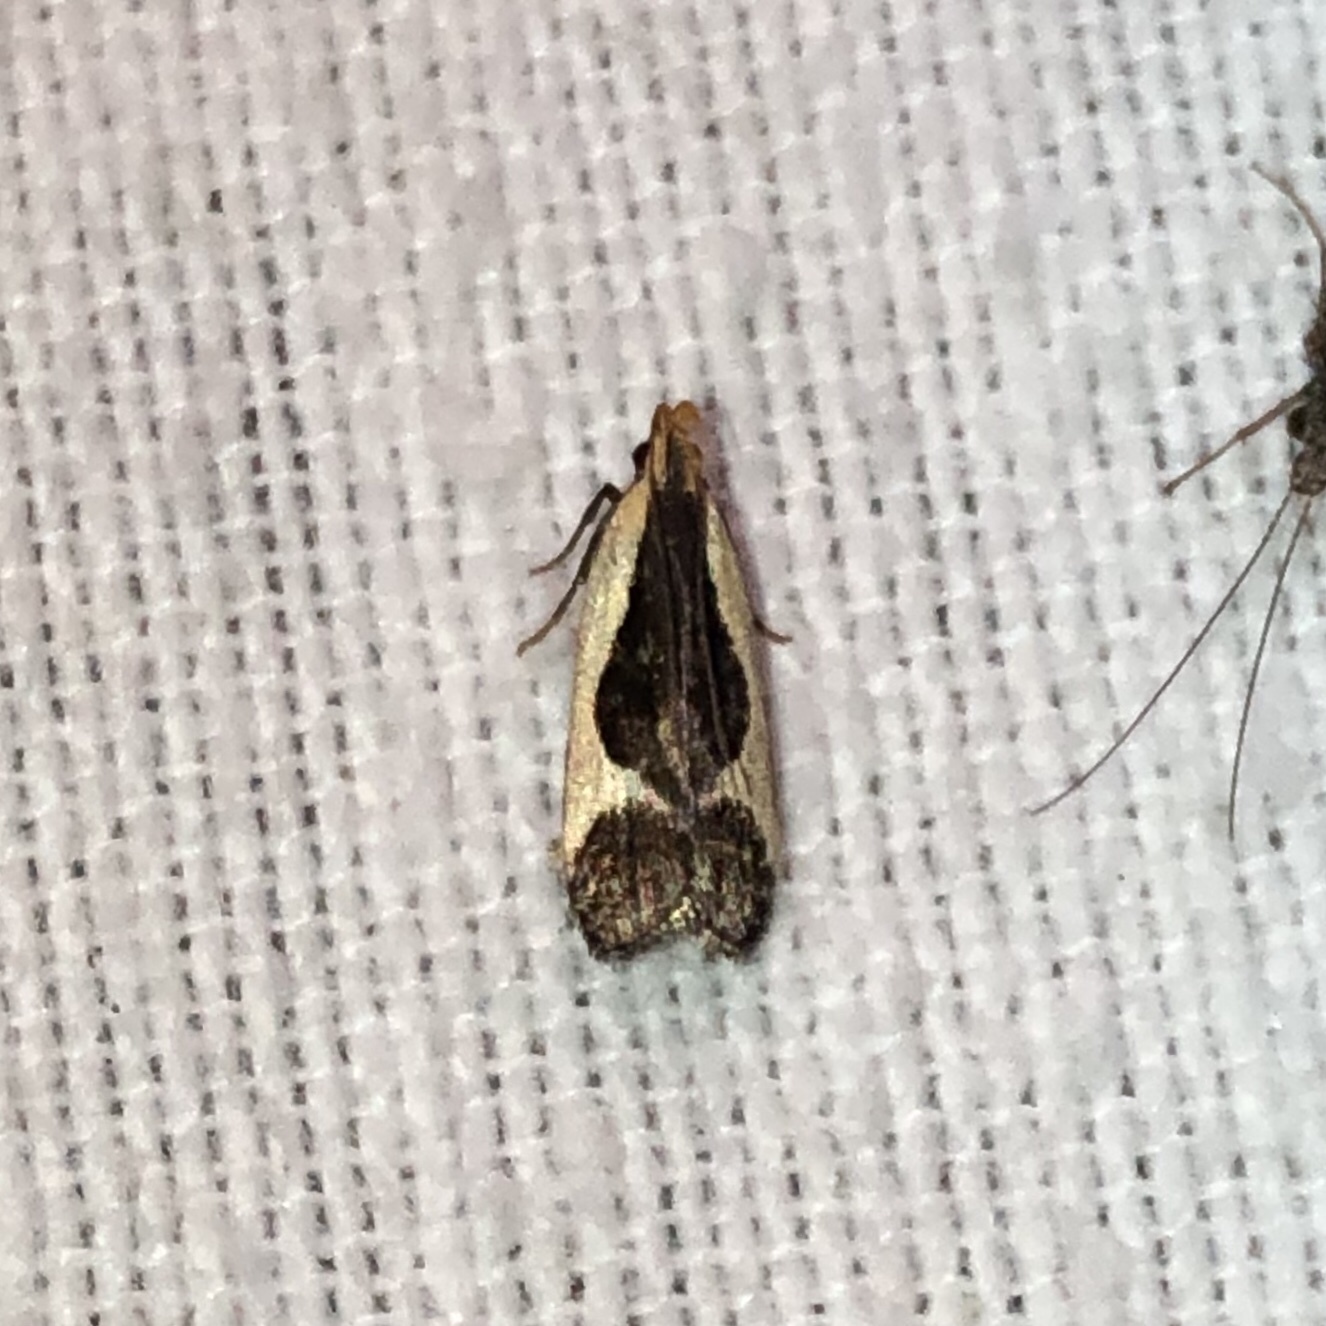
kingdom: Animalia
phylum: Arthropoda
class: Insecta
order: Lepidoptera
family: Gelechiidae
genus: Dichomeris
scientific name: Dichomeris flavocostella
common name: Cream-edged dichomeris moth
